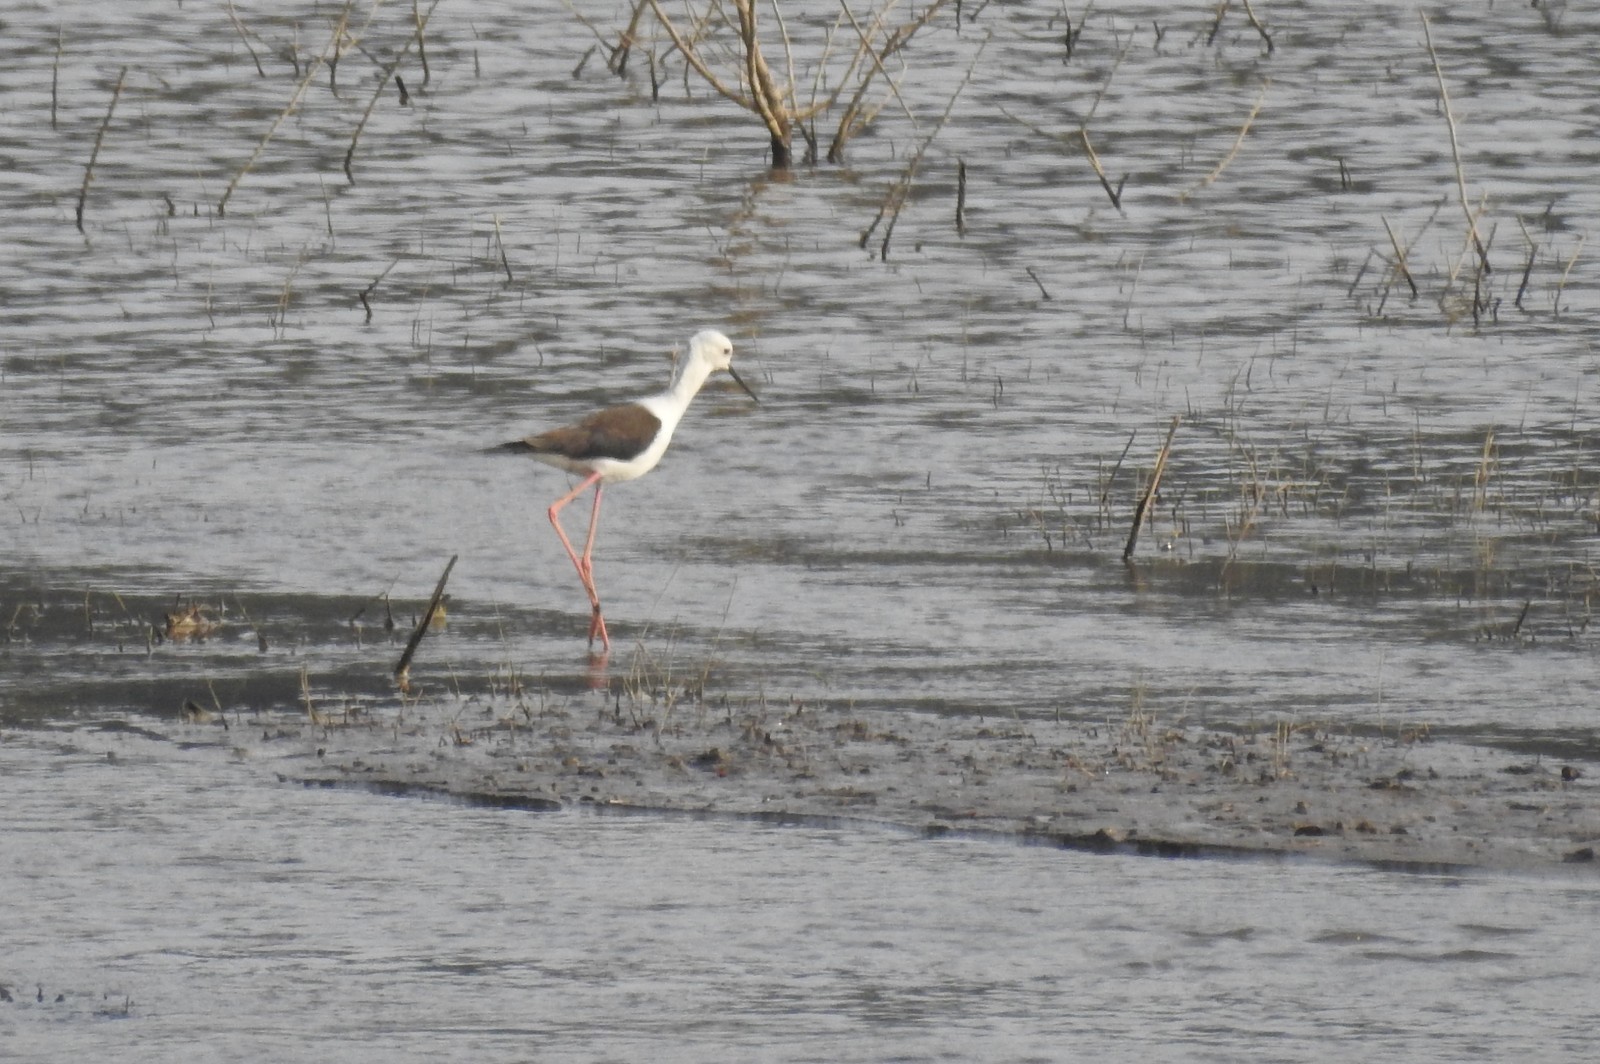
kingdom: Animalia
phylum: Chordata
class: Aves
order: Charadriiformes
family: Recurvirostridae
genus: Himantopus
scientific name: Himantopus himantopus
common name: Black-winged stilt
